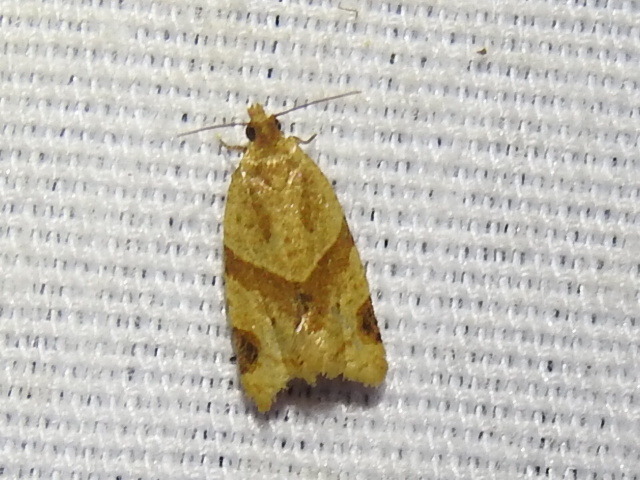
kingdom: Animalia
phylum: Arthropoda
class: Insecta
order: Lepidoptera
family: Tortricidae
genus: Clepsis
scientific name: Clepsis peritana
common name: Garden tortrix
